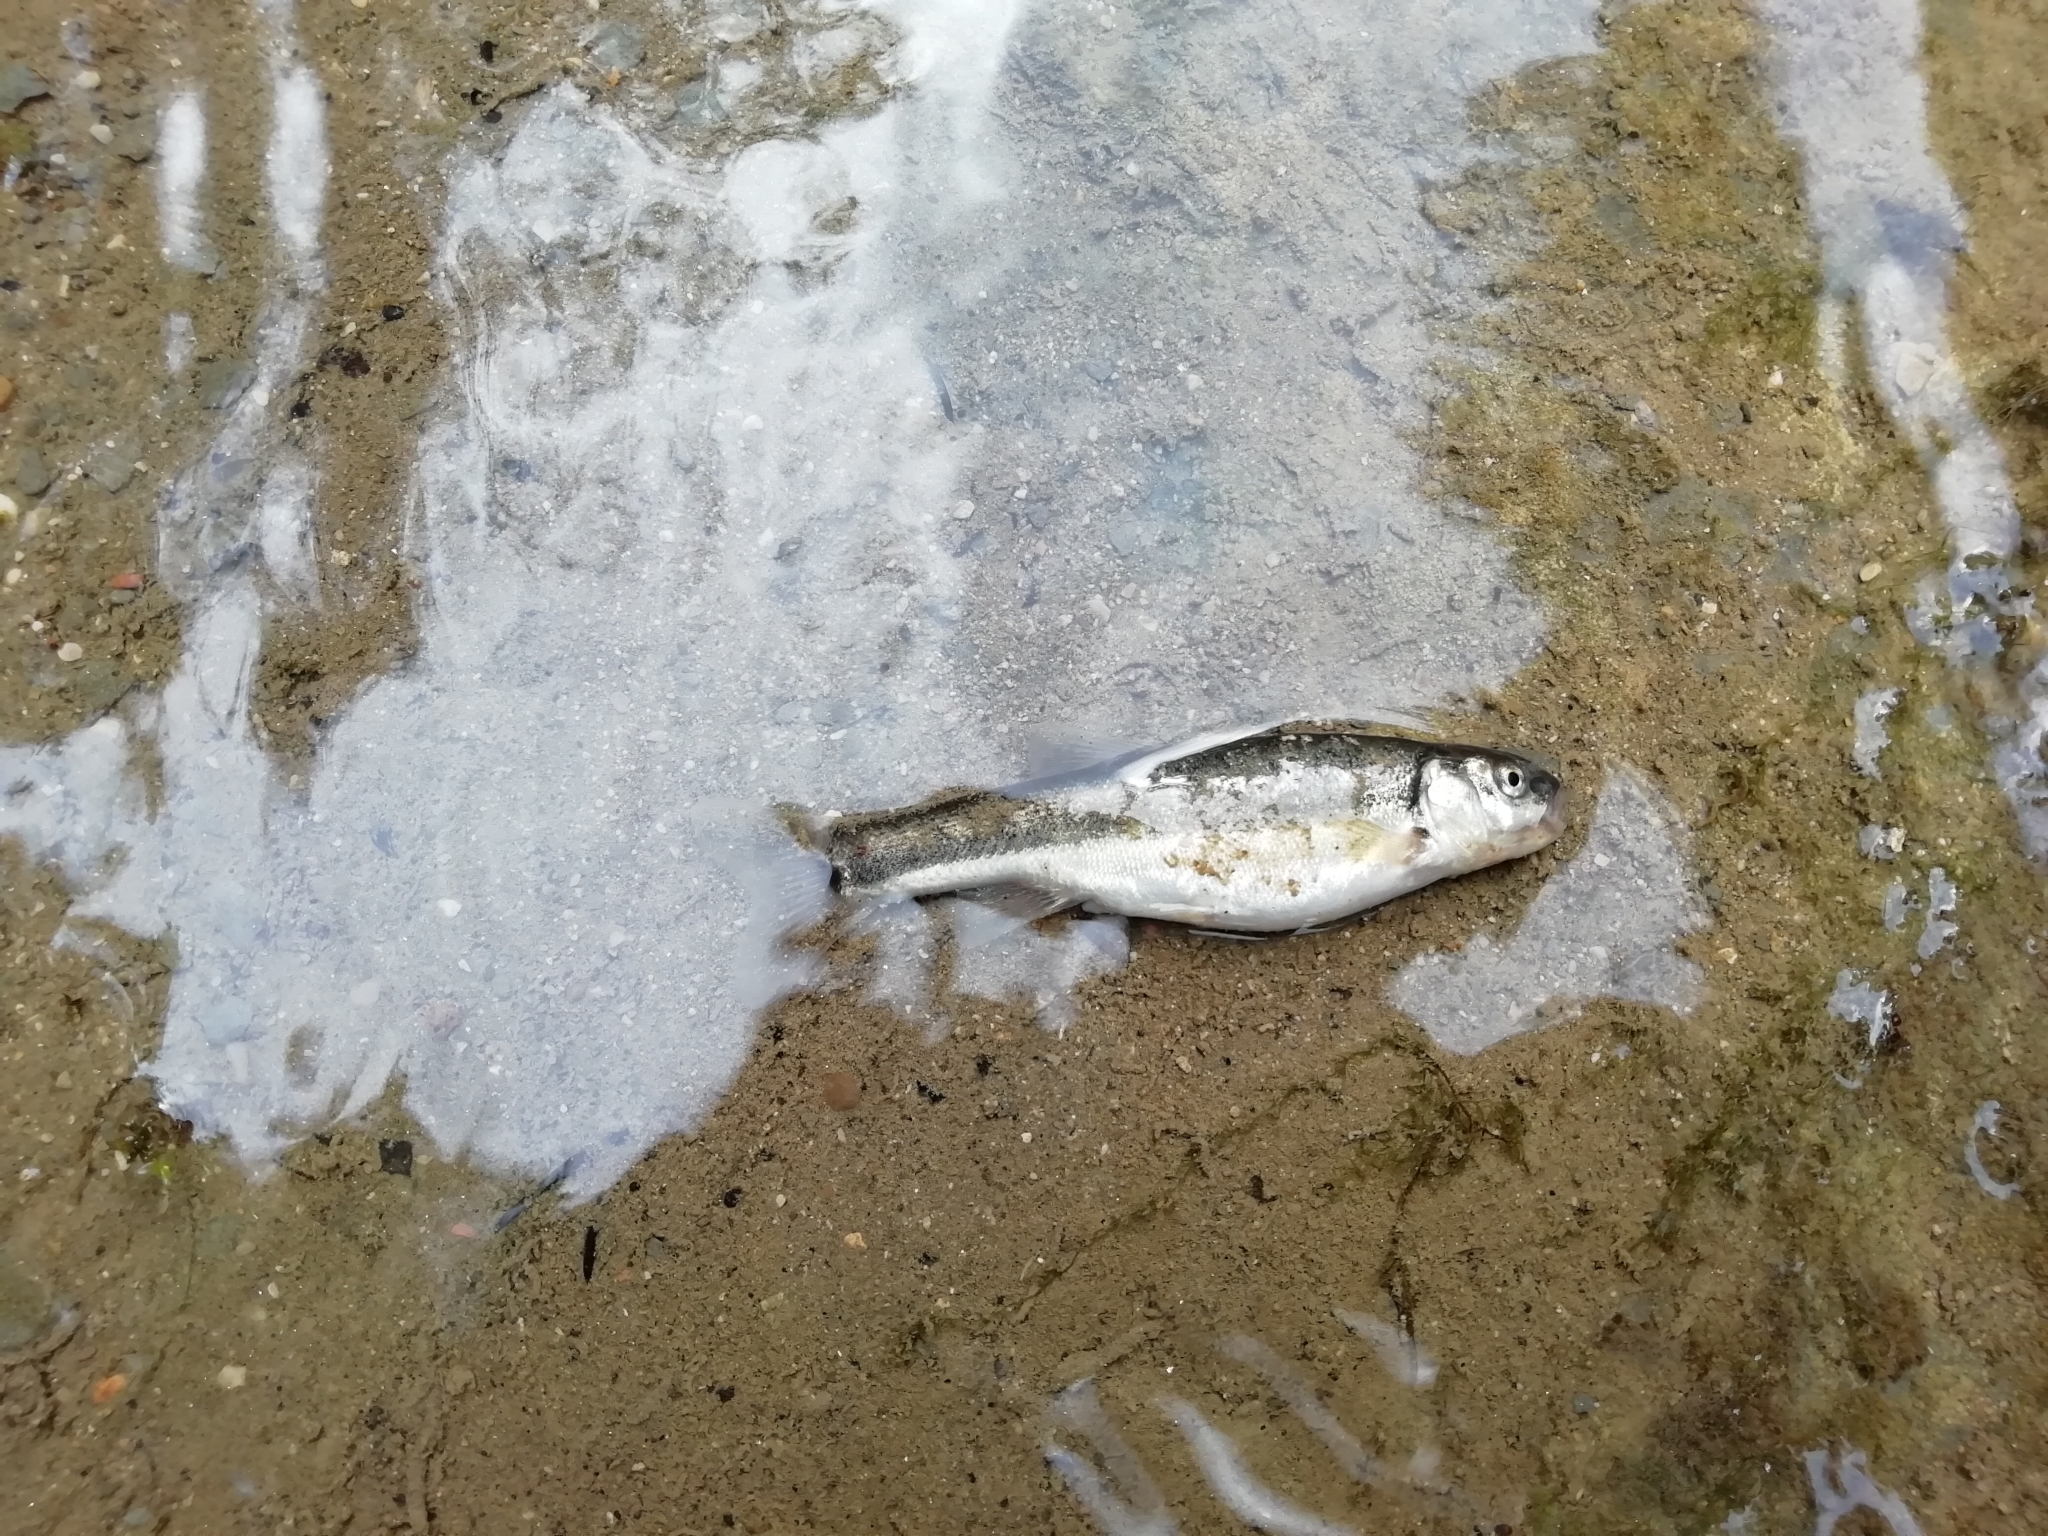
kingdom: Animalia
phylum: Chordata
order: Cypriniformes
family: Cyprinidae
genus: Phoxinus
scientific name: Phoxinus phoxinus
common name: Minnow
